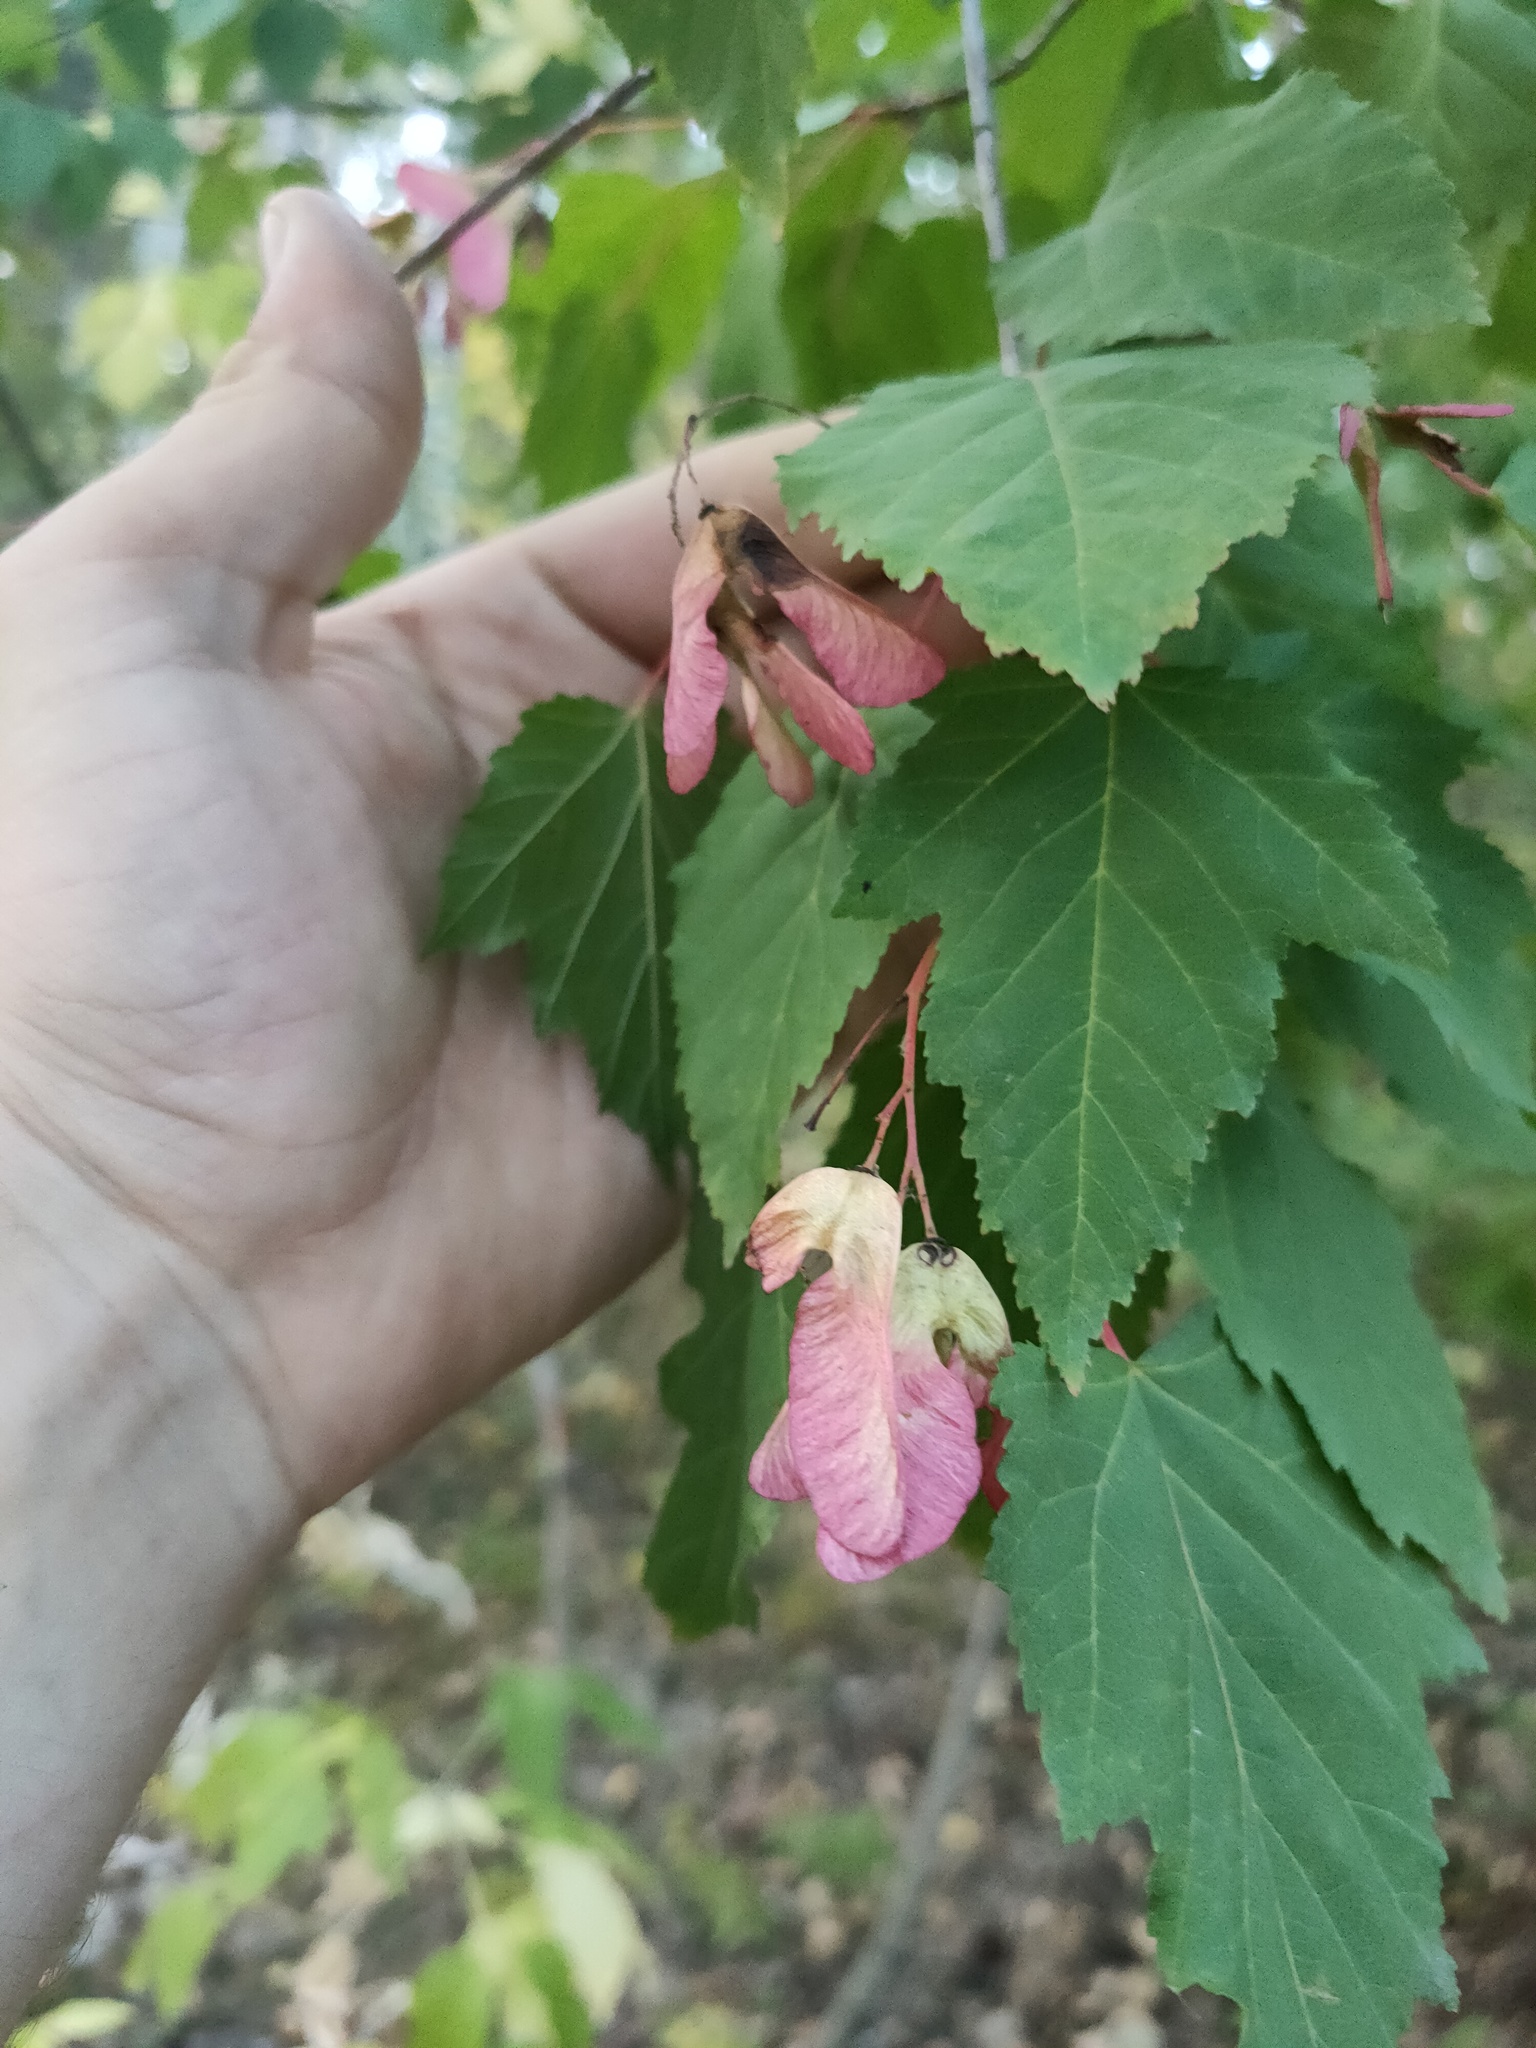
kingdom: Plantae
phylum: Tracheophyta
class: Magnoliopsida
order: Sapindales
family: Sapindaceae
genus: Acer
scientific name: Acer tataricum
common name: Tartar maple
